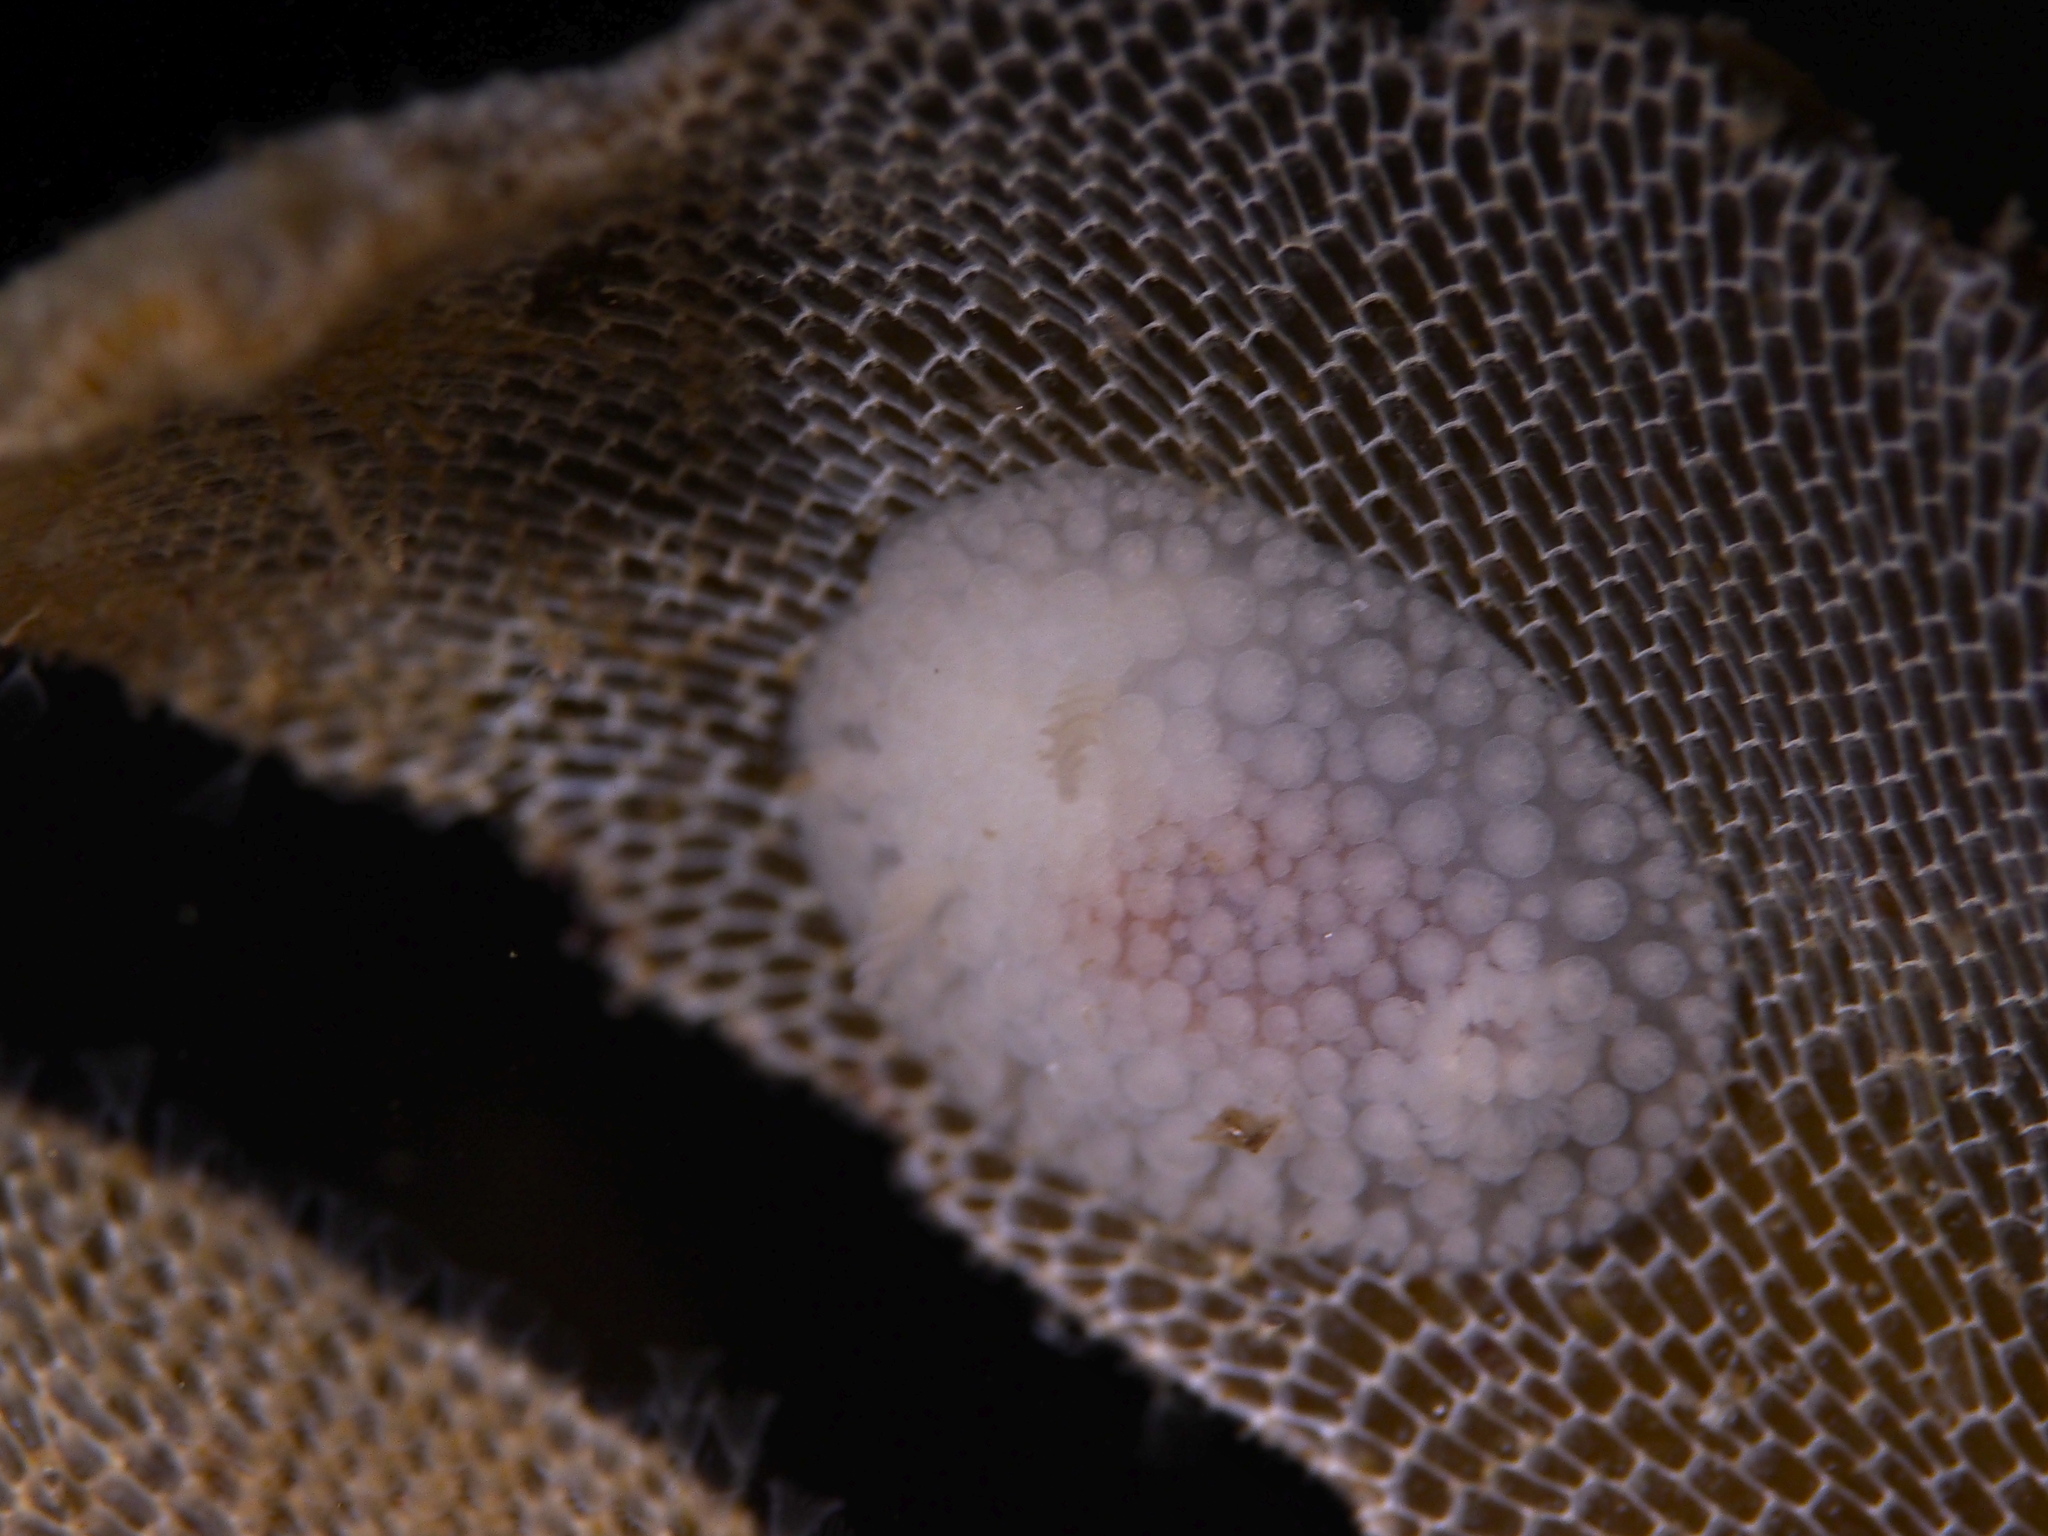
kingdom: Animalia
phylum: Mollusca
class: Gastropoda
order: Nudibranchia
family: Onchidorididae
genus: Onchidoris
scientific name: Onchidoris muricata
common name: Rough doris
